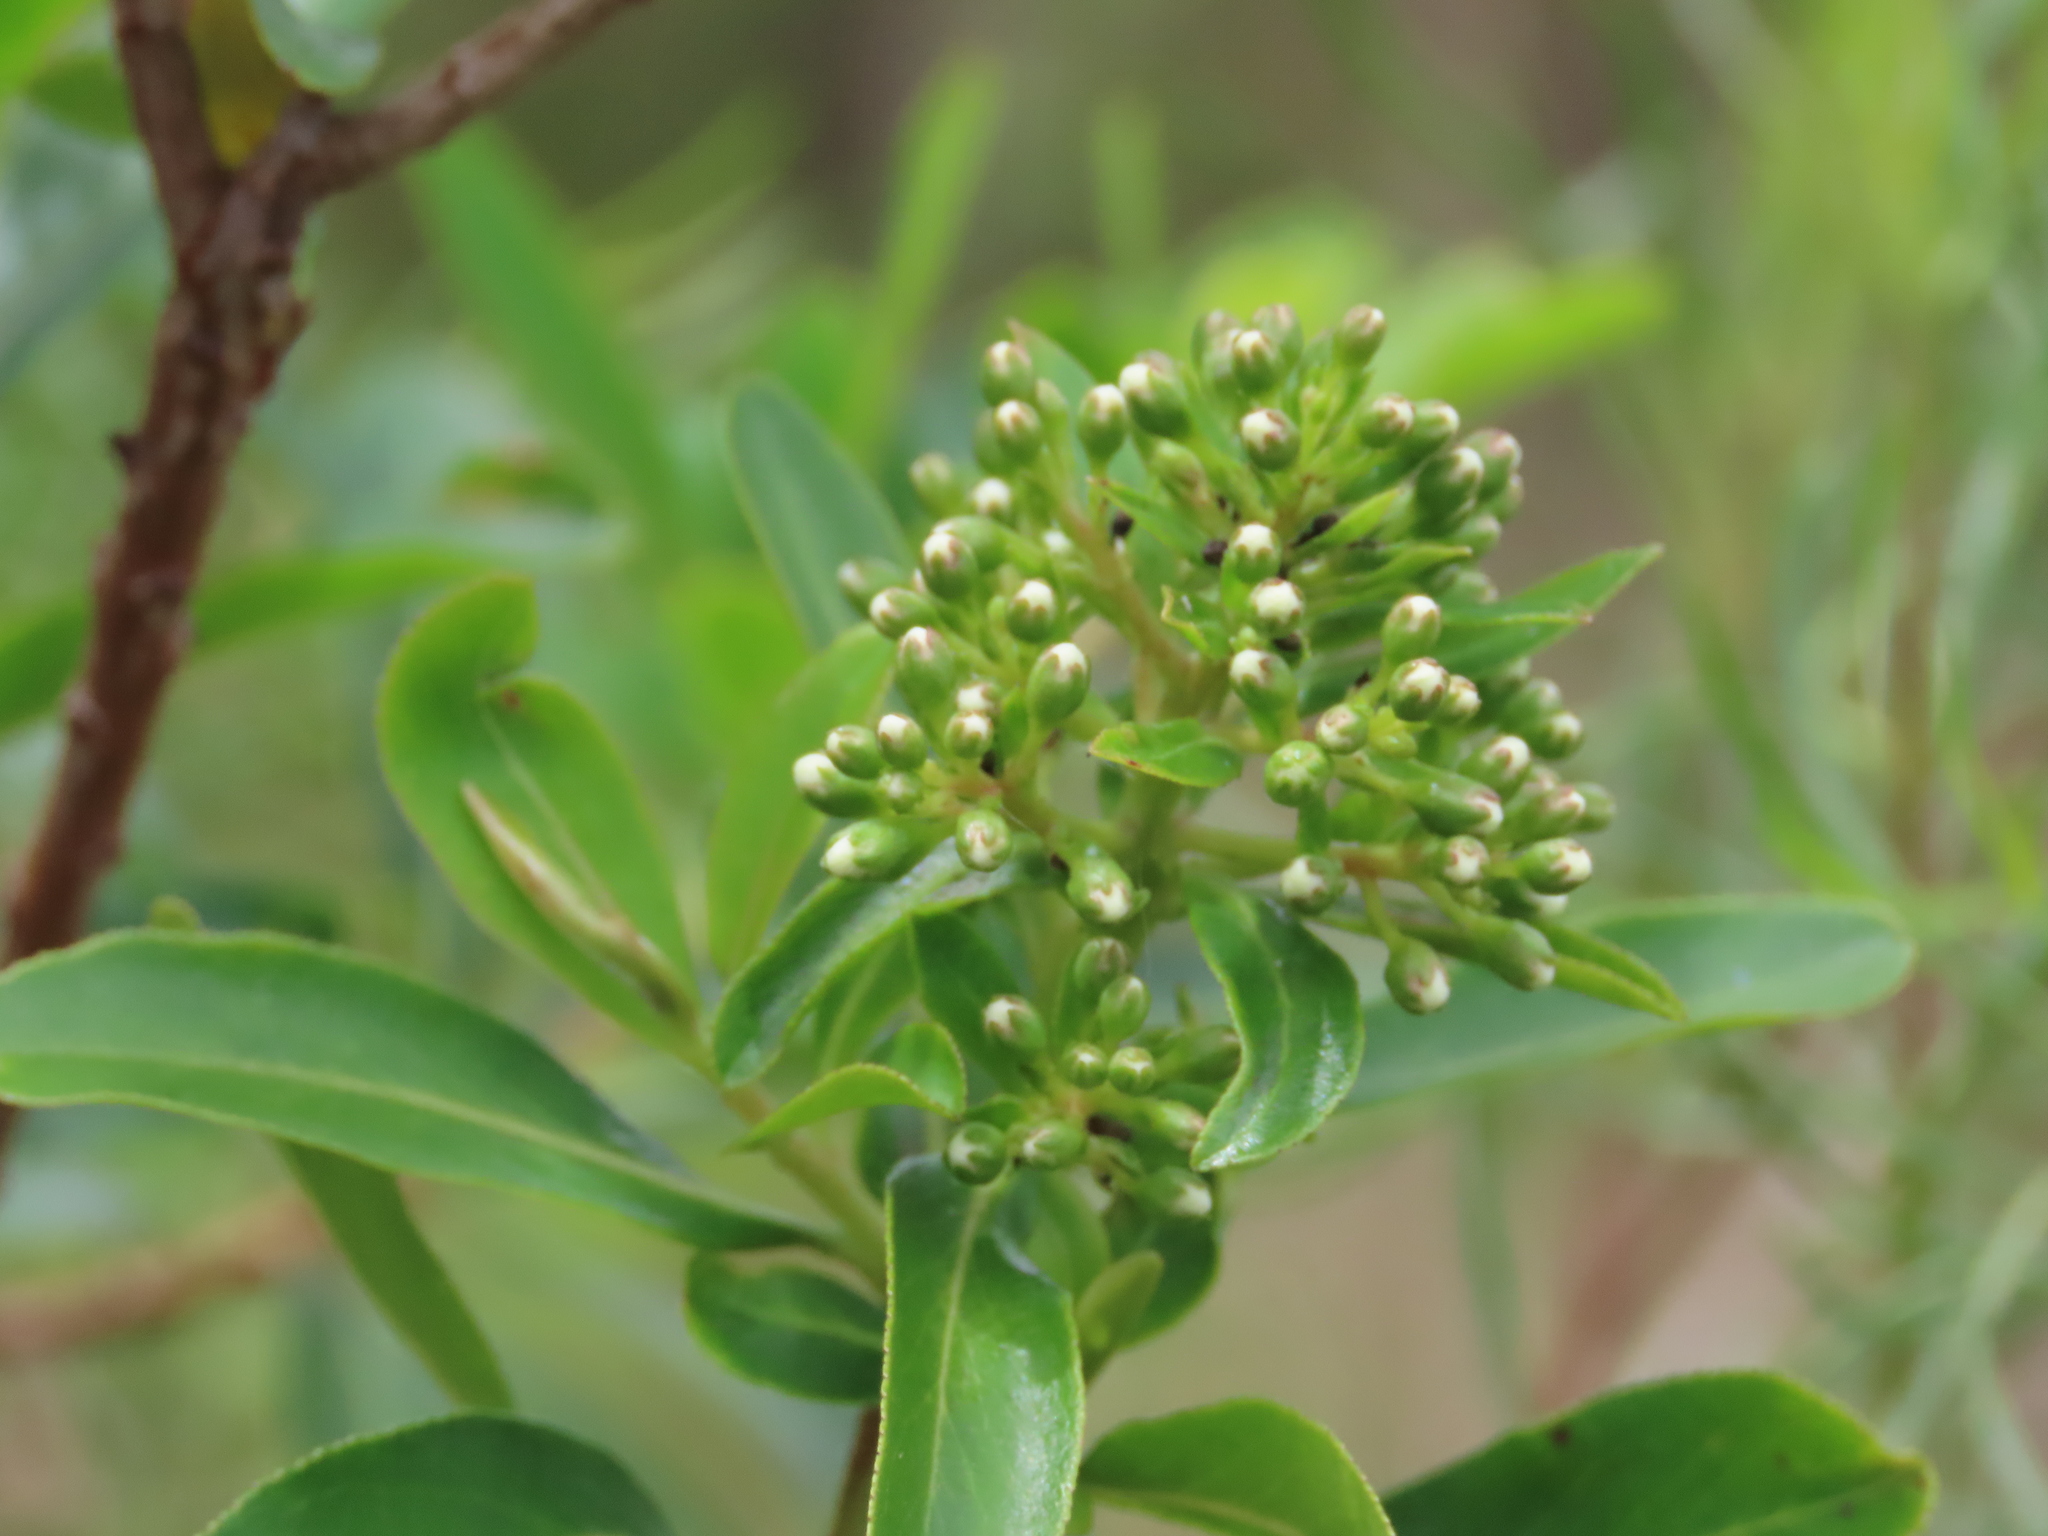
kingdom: Plantae
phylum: Tracheophyta
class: Magnoliopsida
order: Escalloniales
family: Escalloniaceae
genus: Escallonia
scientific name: Escallonia bifida
